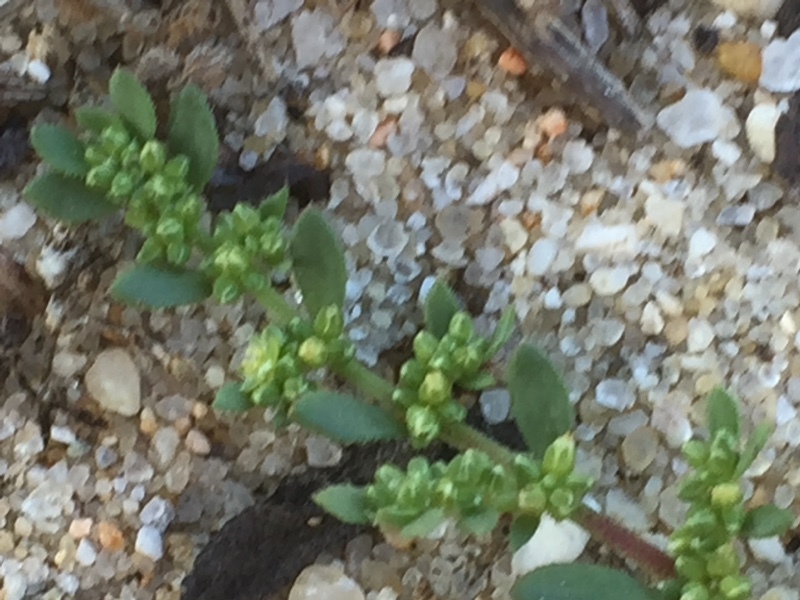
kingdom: Plantae
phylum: Tracheophyta
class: Magnoliopsida
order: Caryophyllales
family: Caryophyllaceae
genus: Herniaria
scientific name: Herniaria glabra
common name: Smooth rupturewort
